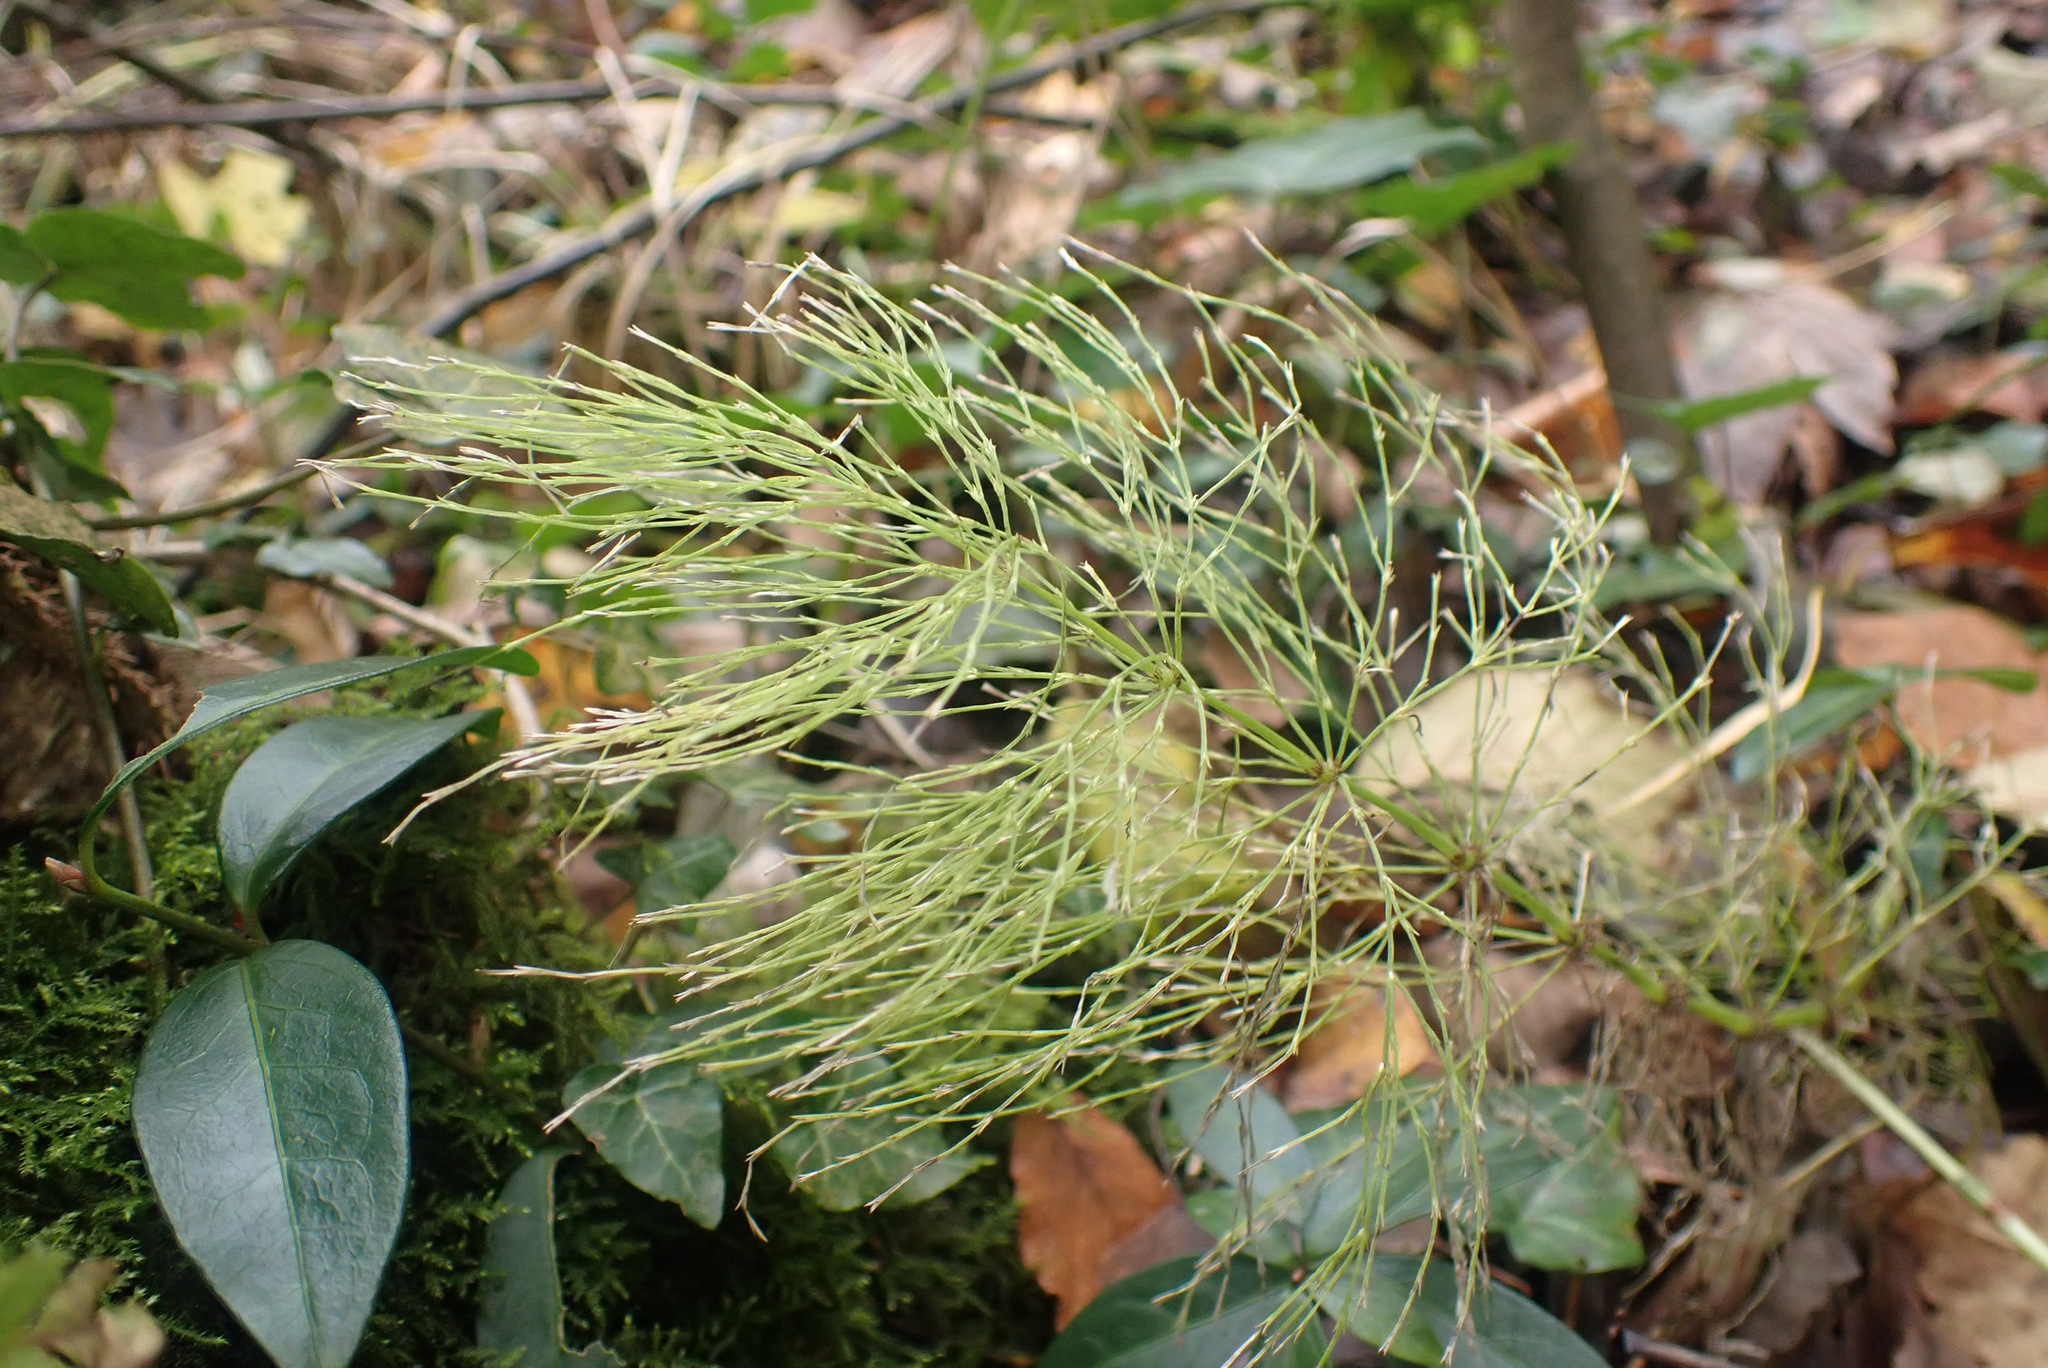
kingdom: Plantae
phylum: Tracheophyta
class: Polypodiopsida
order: Equisetales
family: Equisetaceae
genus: Equisetum
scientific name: Equisetum sylvaticum
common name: Wood horsetail
